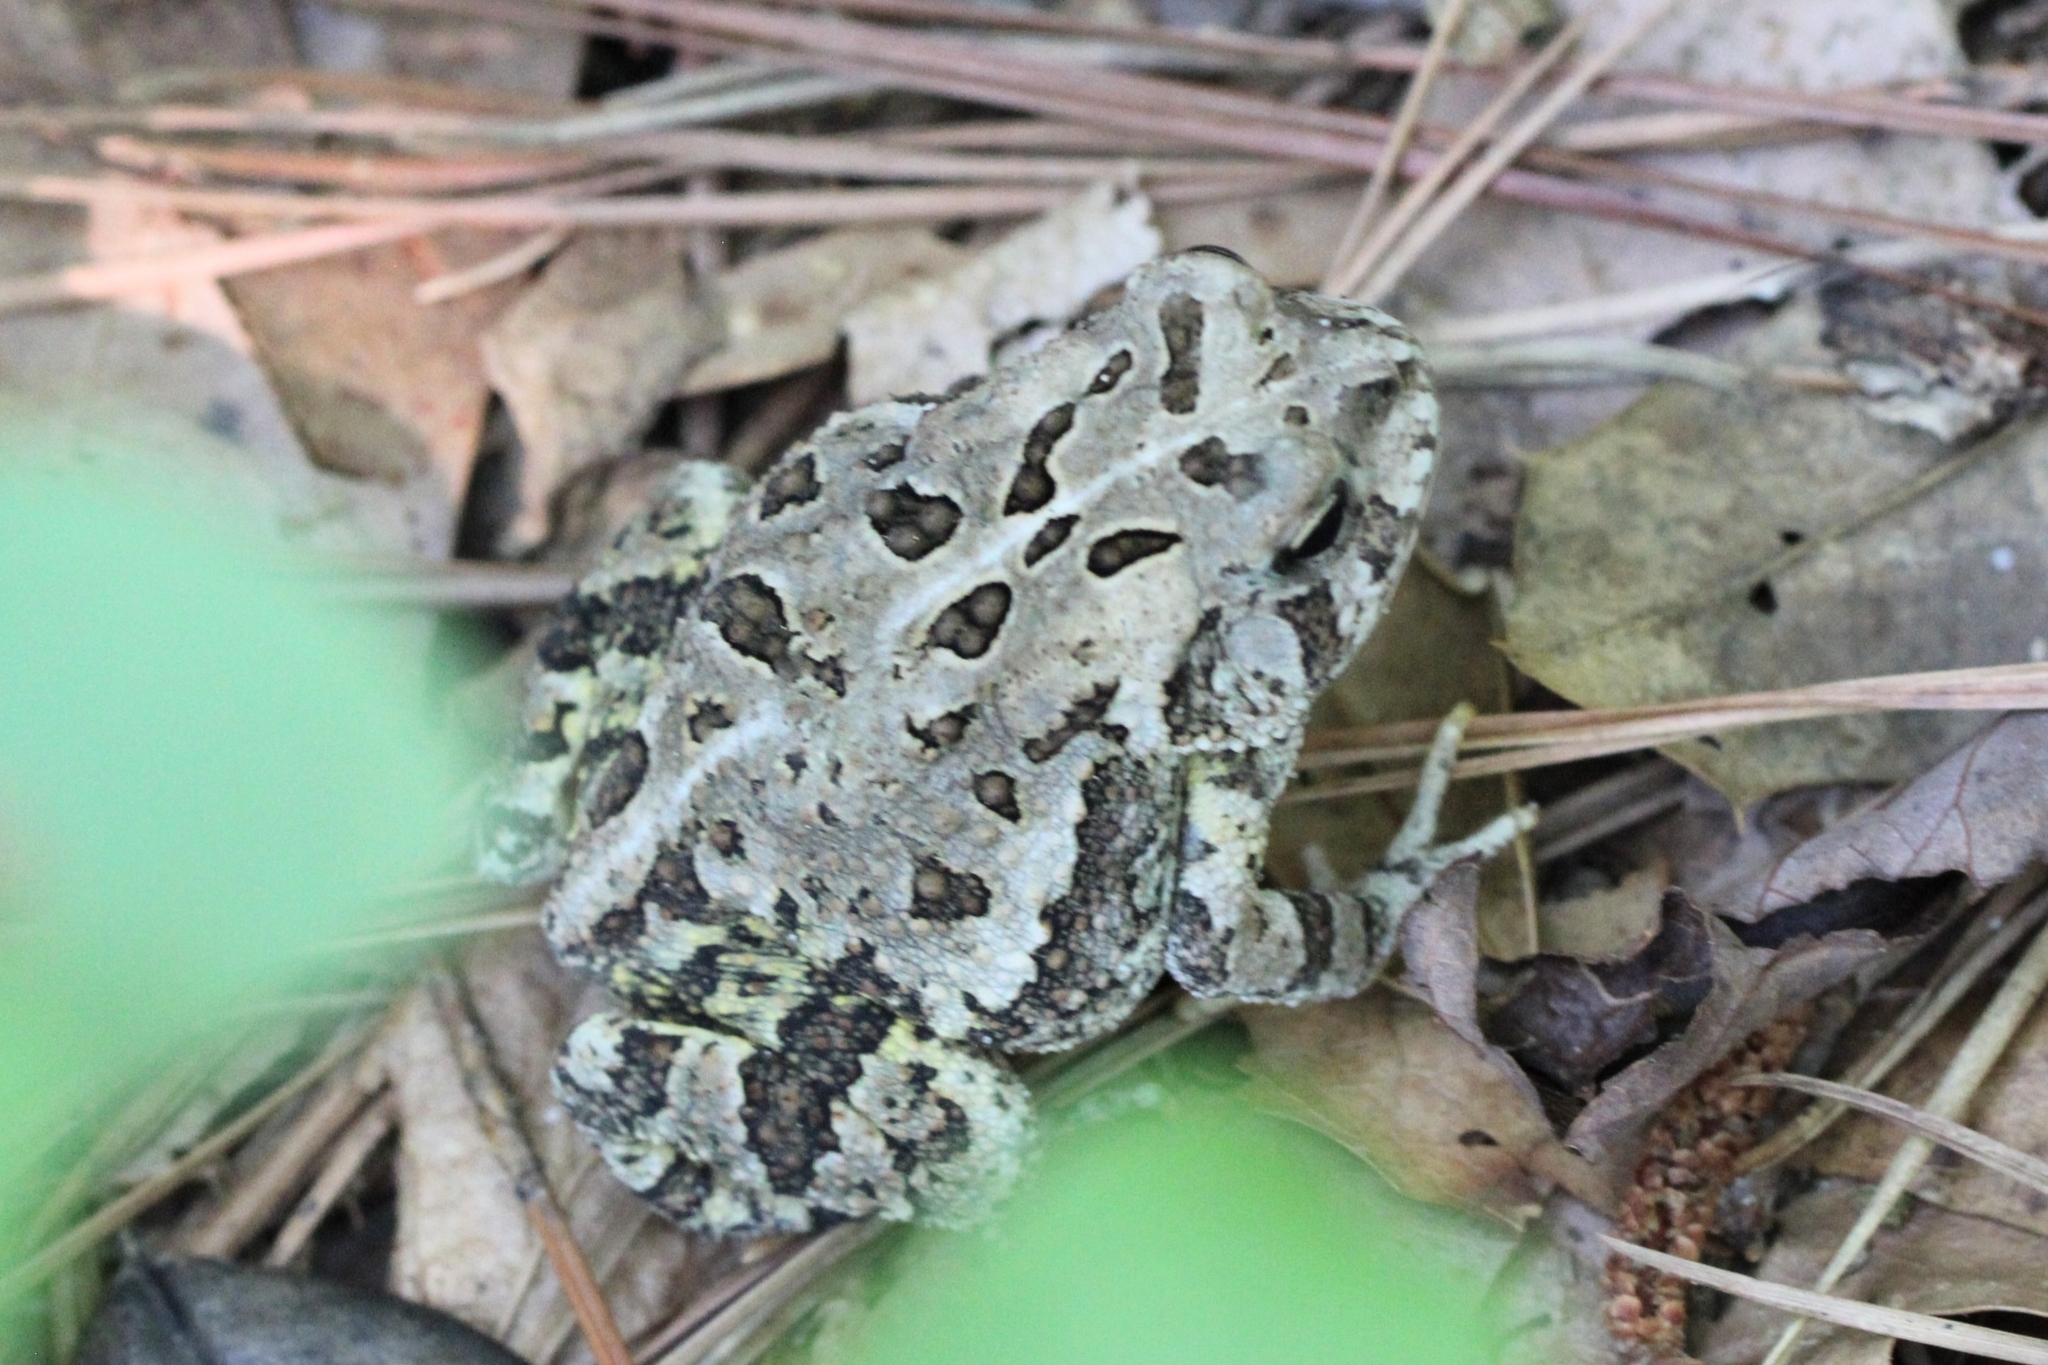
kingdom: Animalia
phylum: Chordata
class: Amphibia
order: Anura
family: Bufonidae
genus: Anaxyrus
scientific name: Anaxyrus fowleri
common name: Fowler's toad
